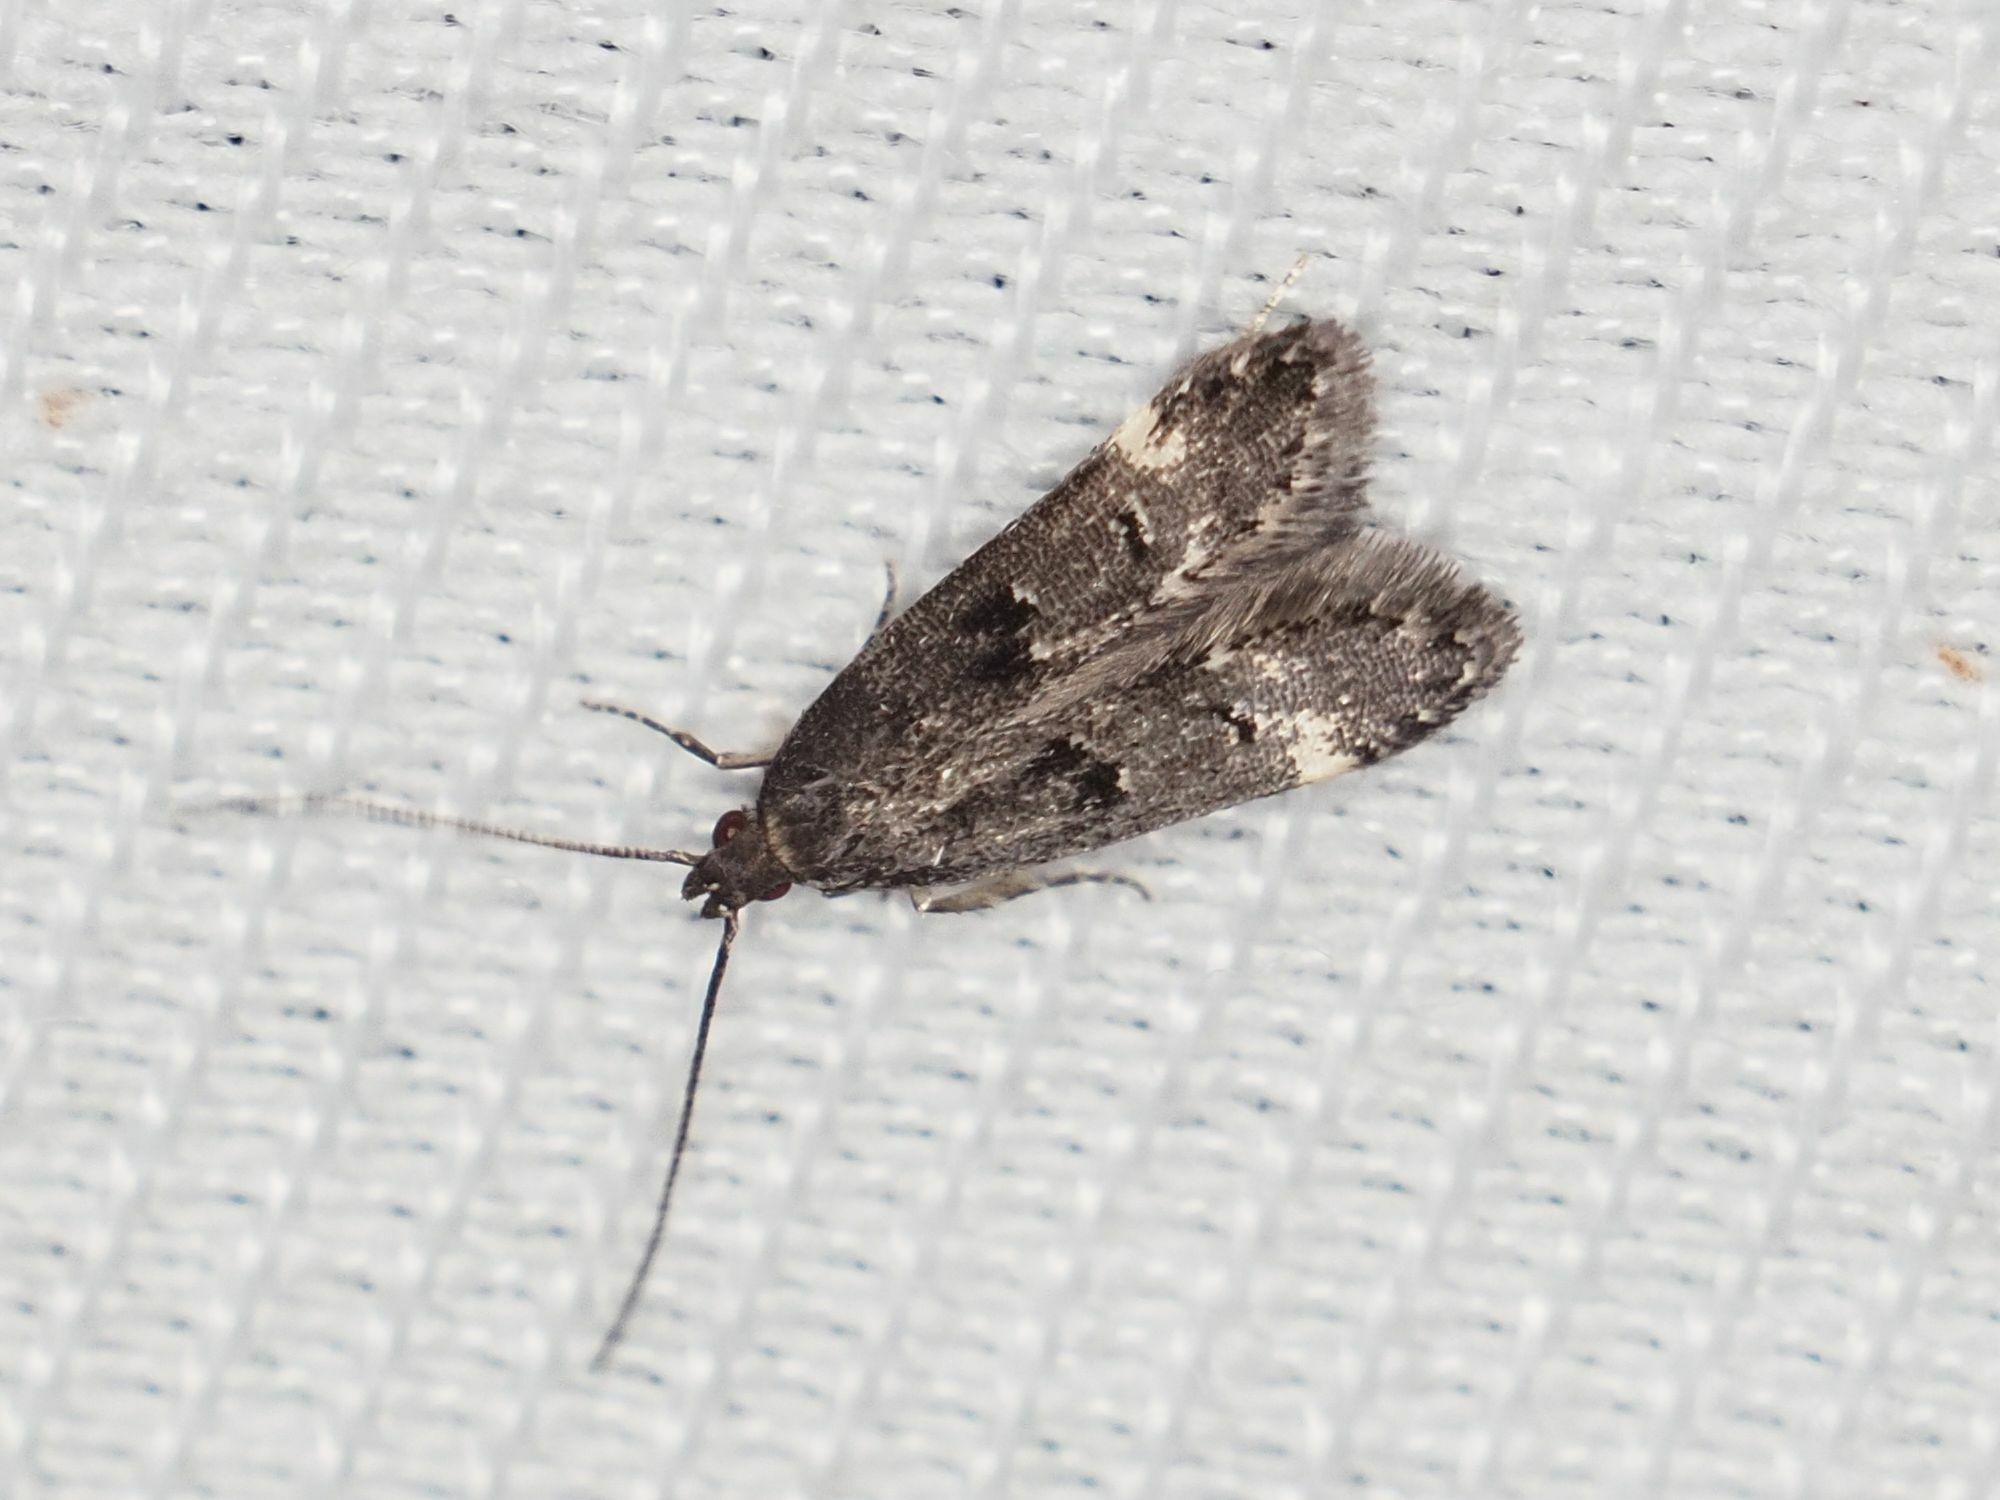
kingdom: Animalia
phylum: Arthropoda
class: Insecta
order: Lepidoptera
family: Gelechiidae
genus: Acanthophila
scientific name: Acanthophila alacella
